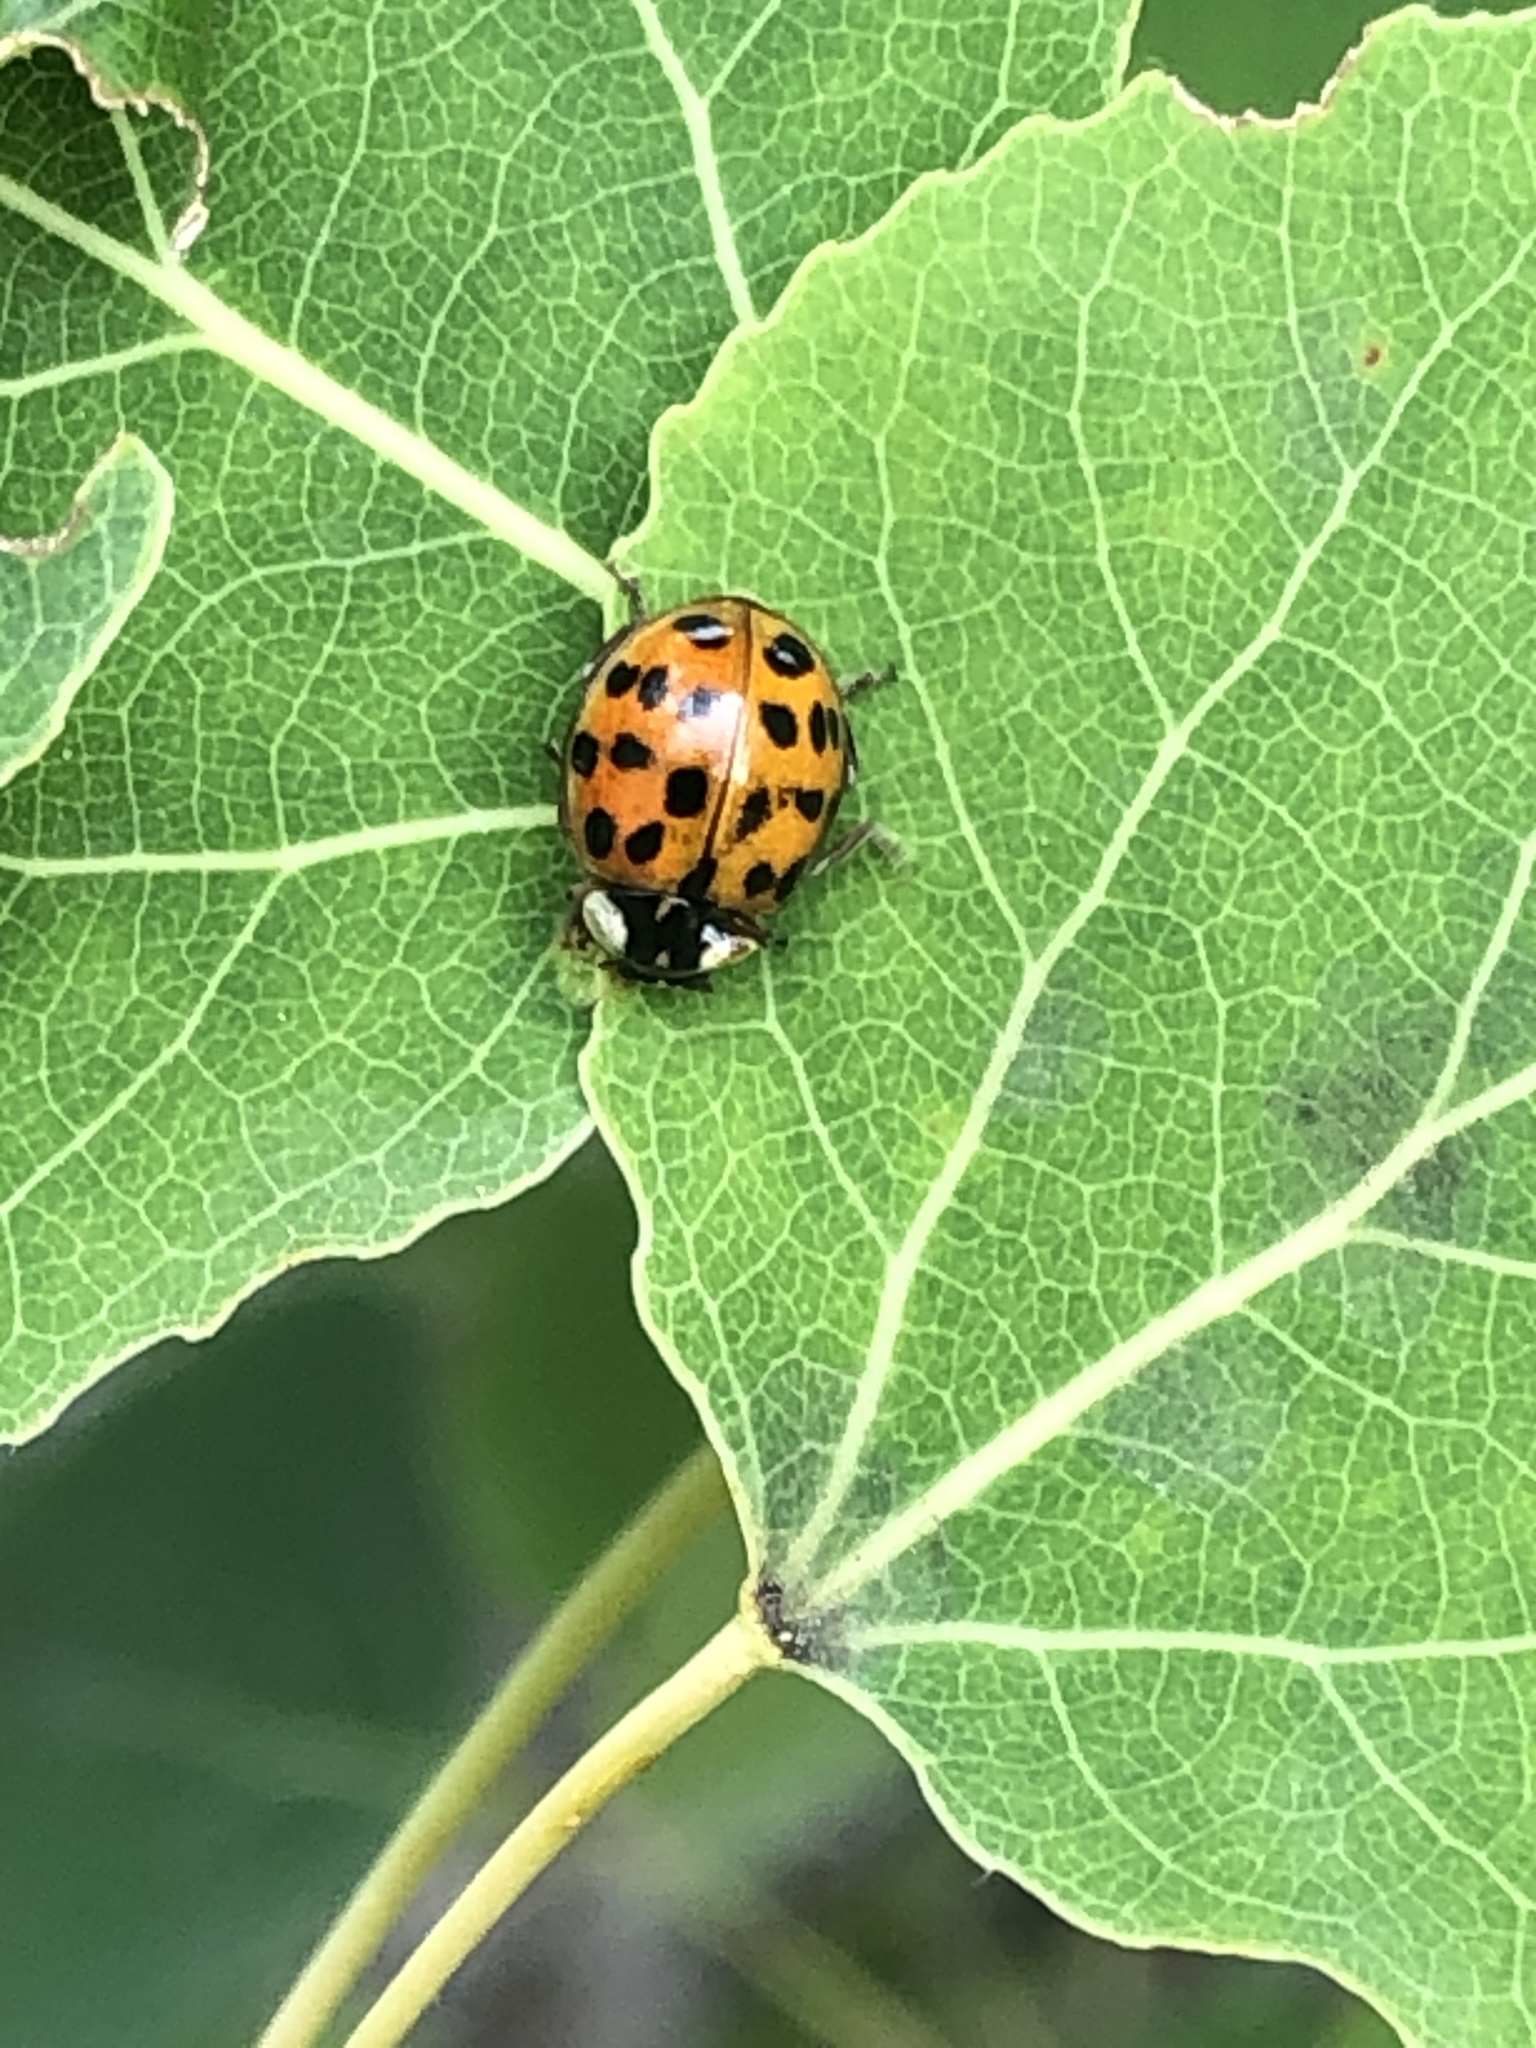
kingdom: Animalia
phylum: Arthropoda
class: Insecta
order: Coleoptera
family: Coccinellidae
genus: Harmonia
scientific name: Harmonia axyridis
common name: Harlequin ladybird
